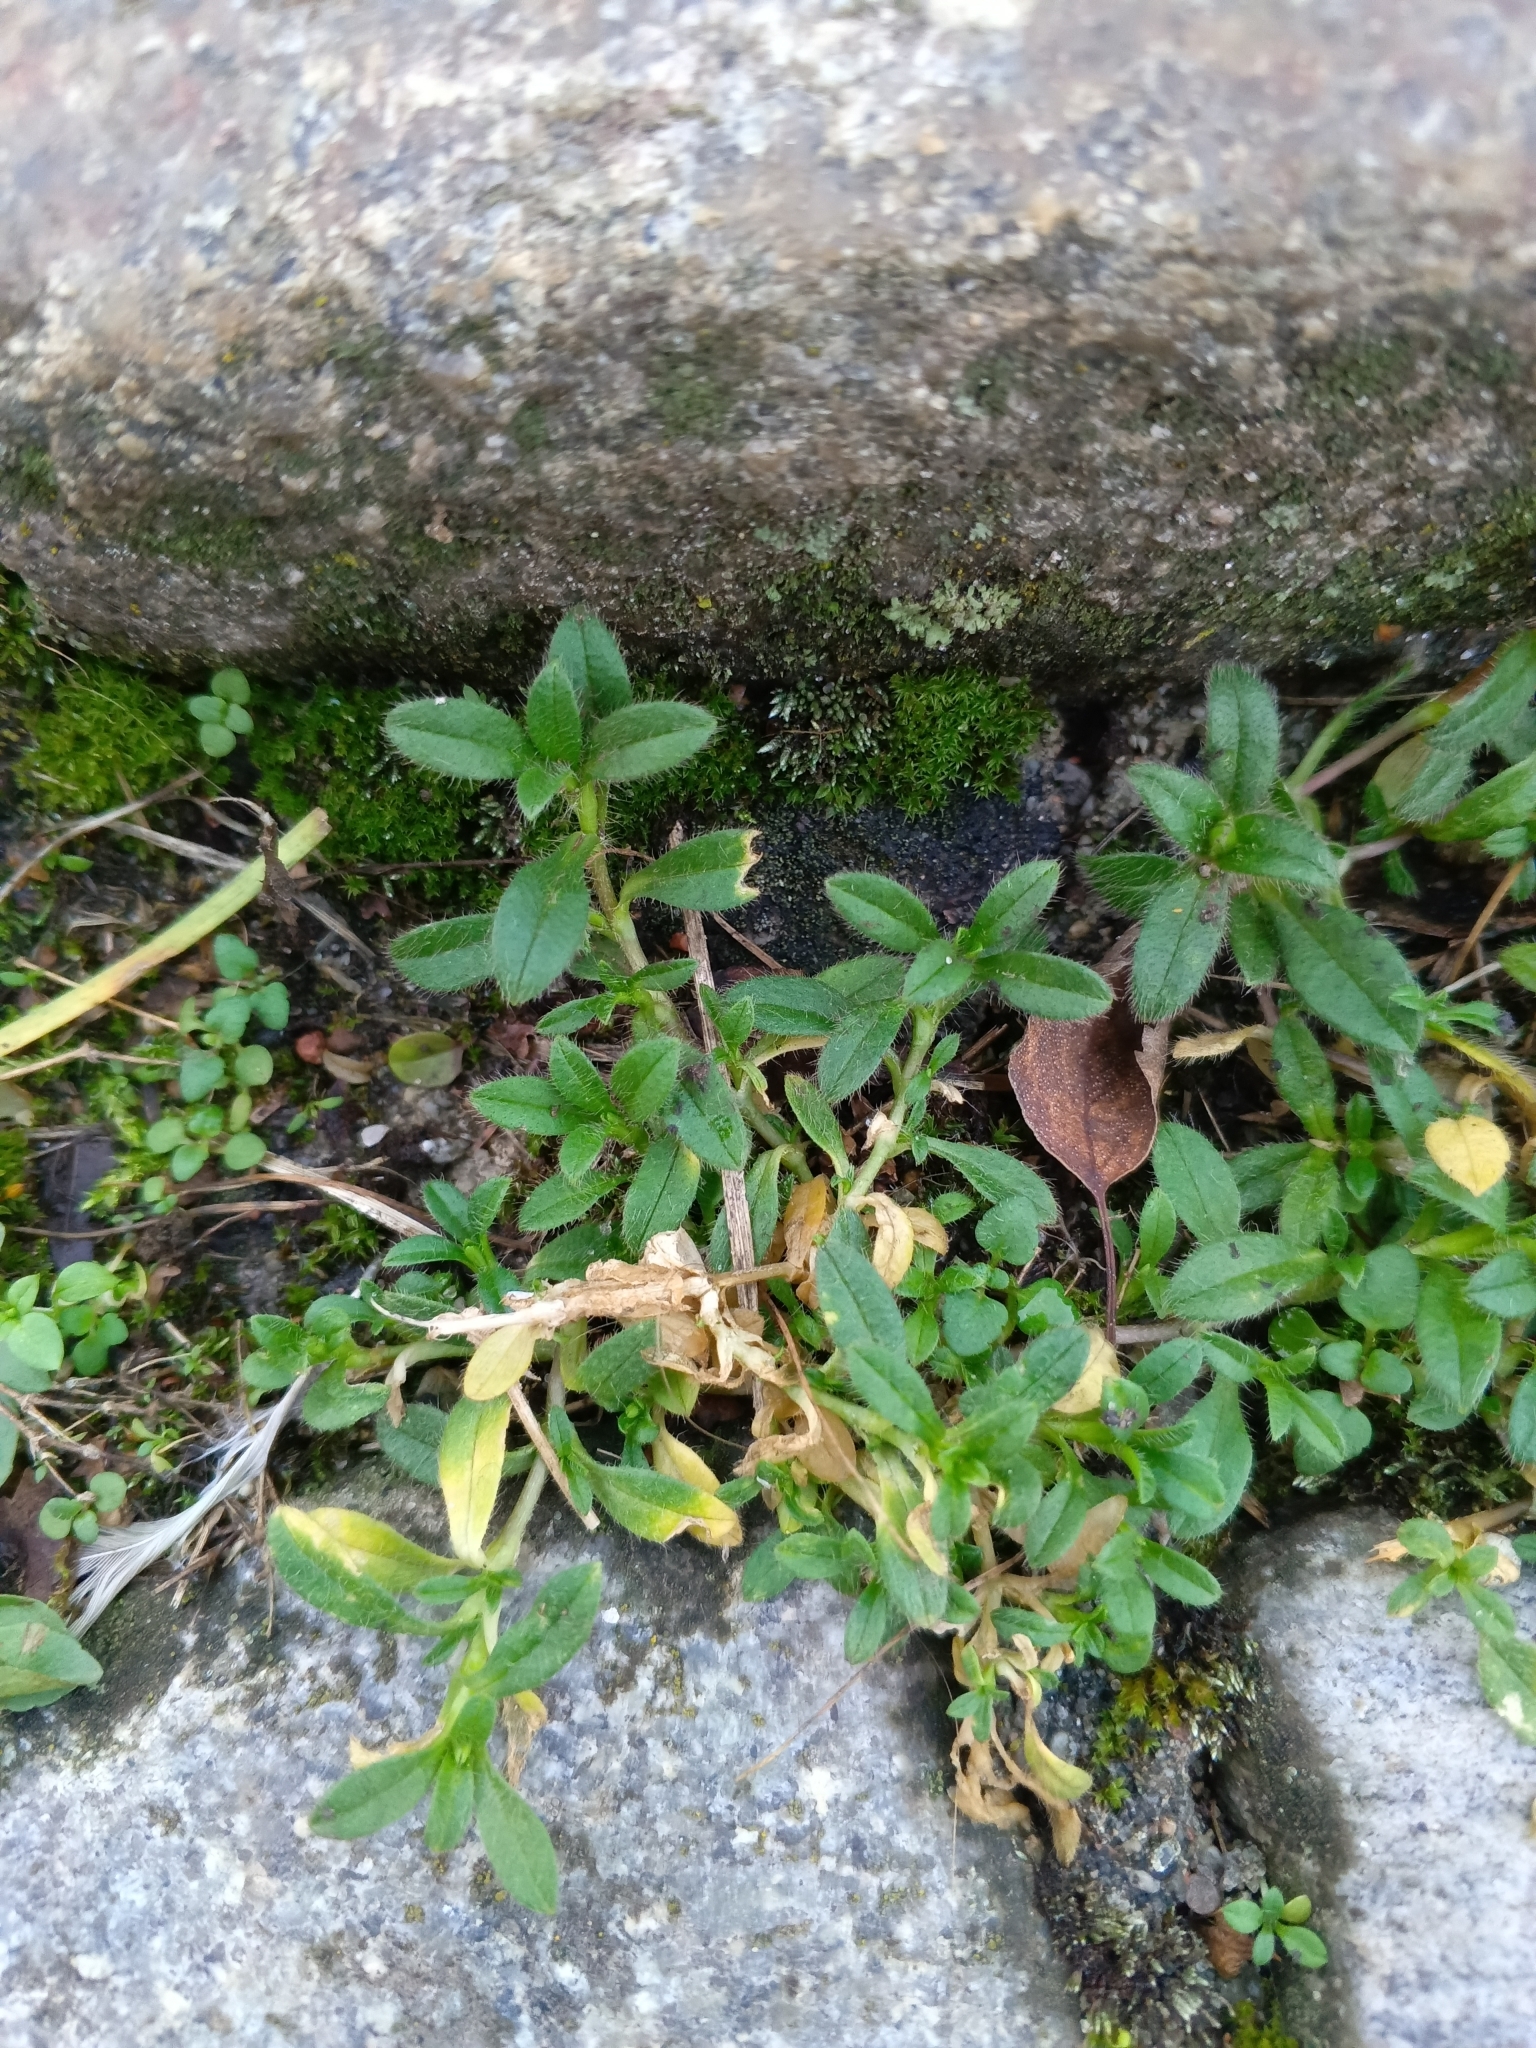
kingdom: Plantae
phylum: Tracheophyta
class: Magnoliopsida
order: Caryophyllales
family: Caryophyllaceae
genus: Cerastium
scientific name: Cerastium holosteoides
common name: Big chickweed
